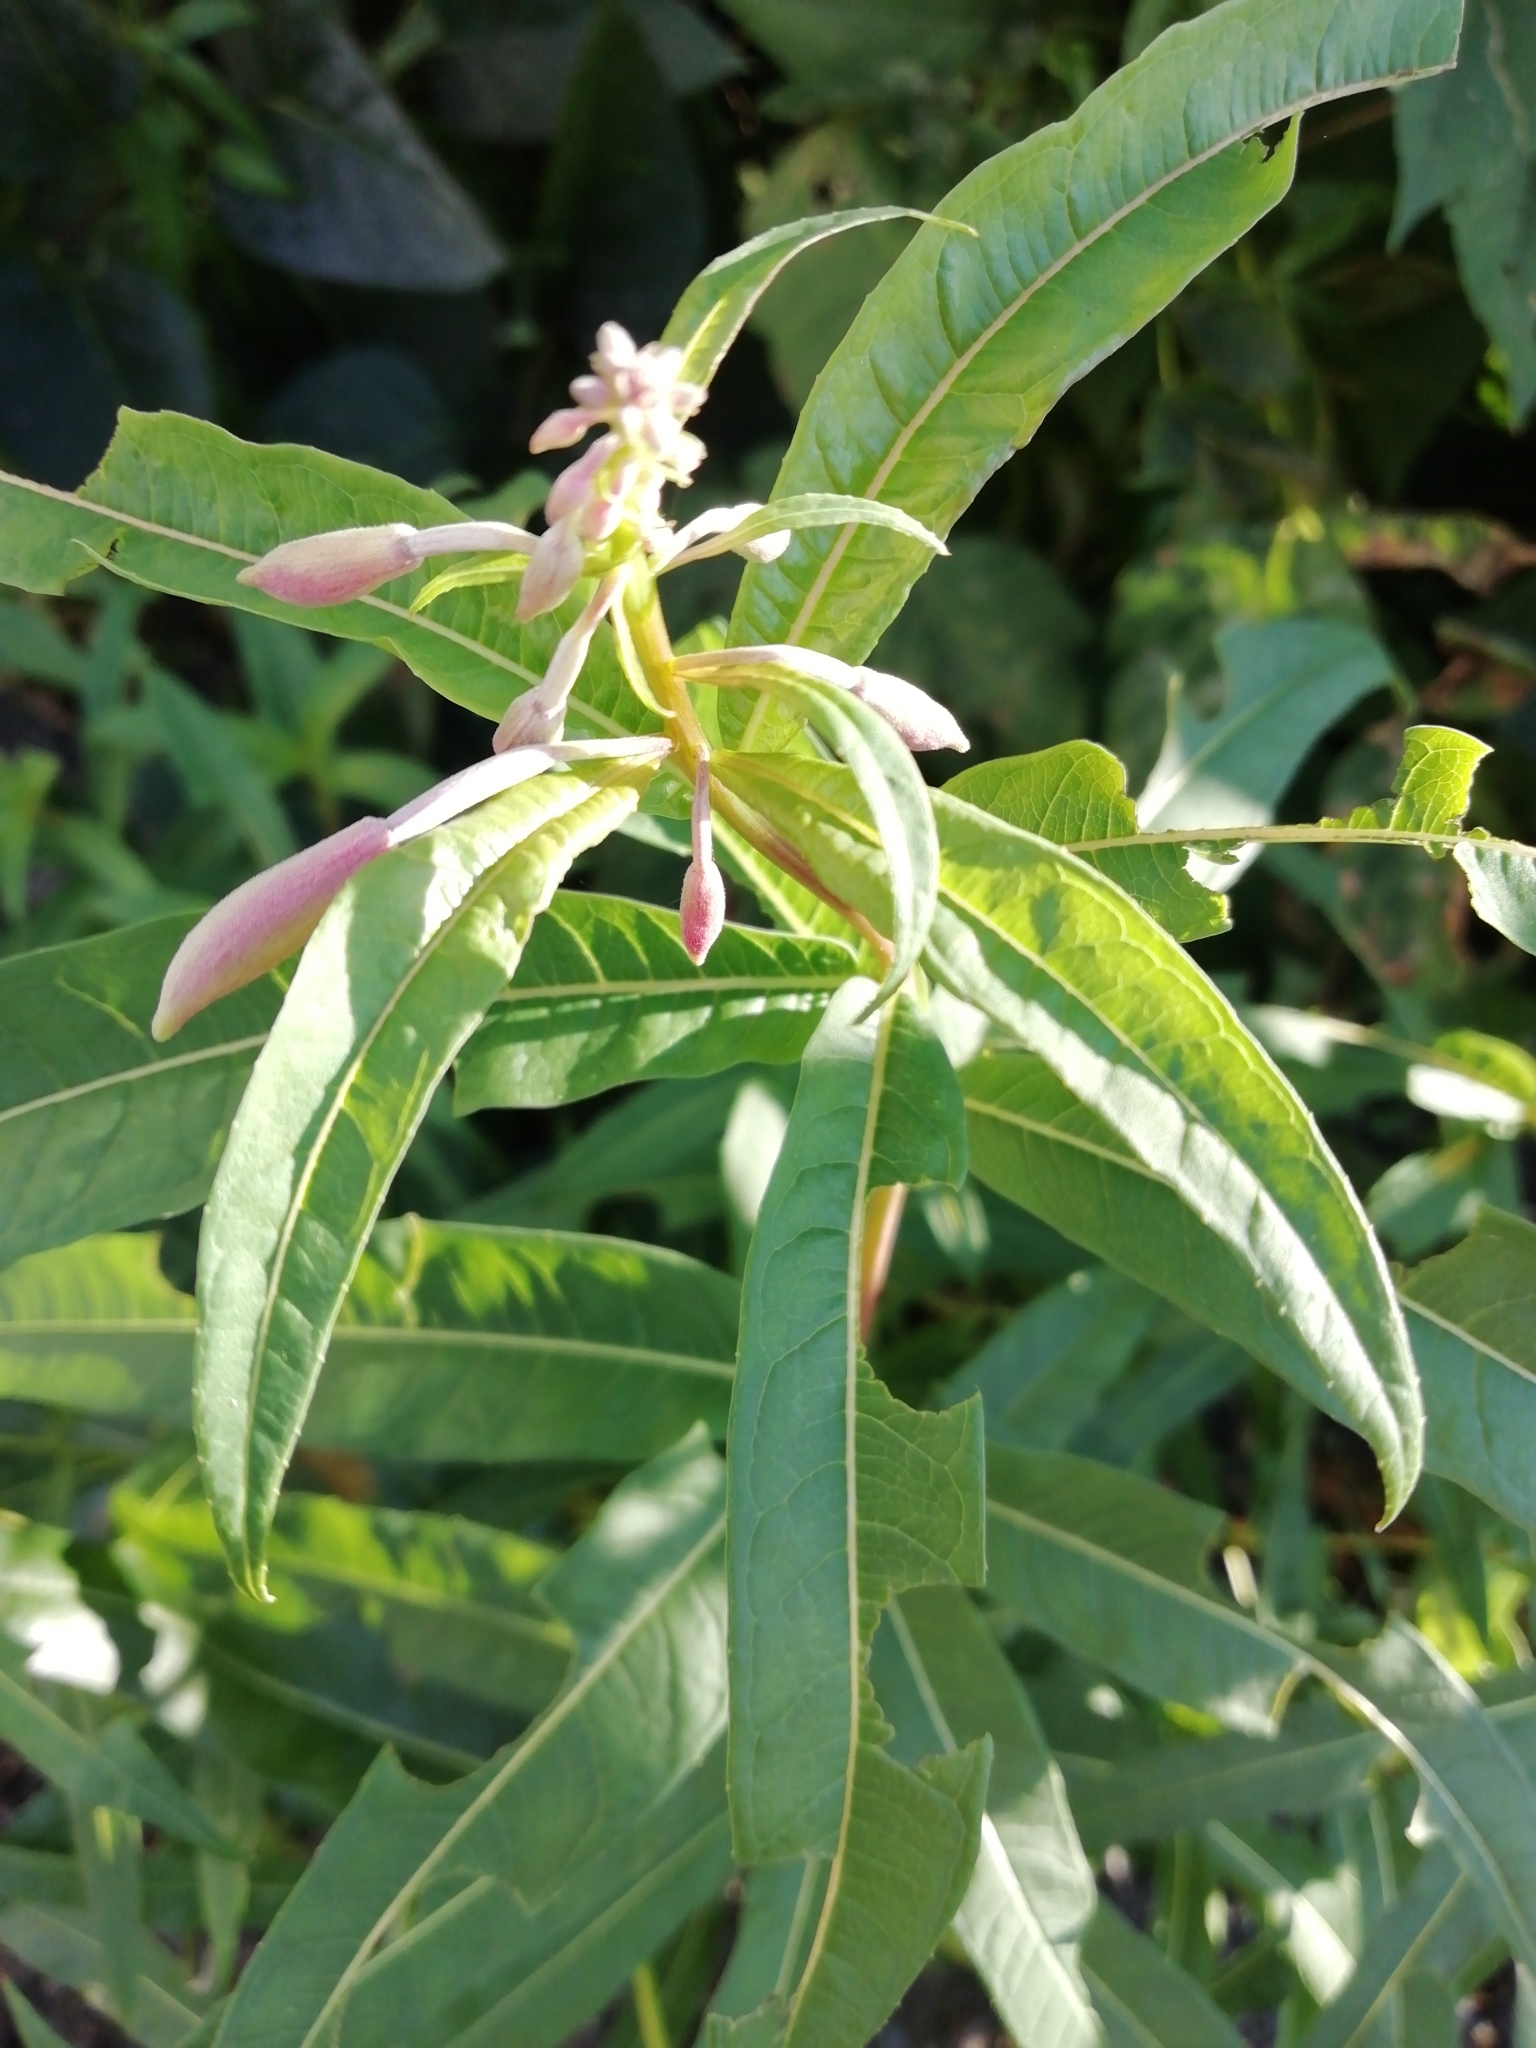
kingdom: Plantae
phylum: Tracheophyta
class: Magnoliopsida
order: Myrtales
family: Onagraceae
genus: Chamaenerion
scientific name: Chamaenerion angustifolium
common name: Fireweed
